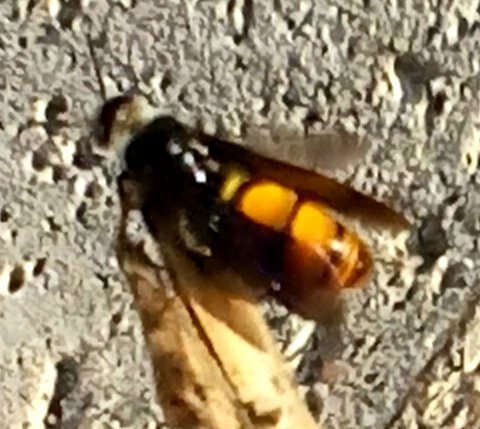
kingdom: Animalia
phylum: Arthropoda
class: Insecta
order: Hymenoptera
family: Scoliidae
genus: Dielis
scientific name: Dielis tolteca
